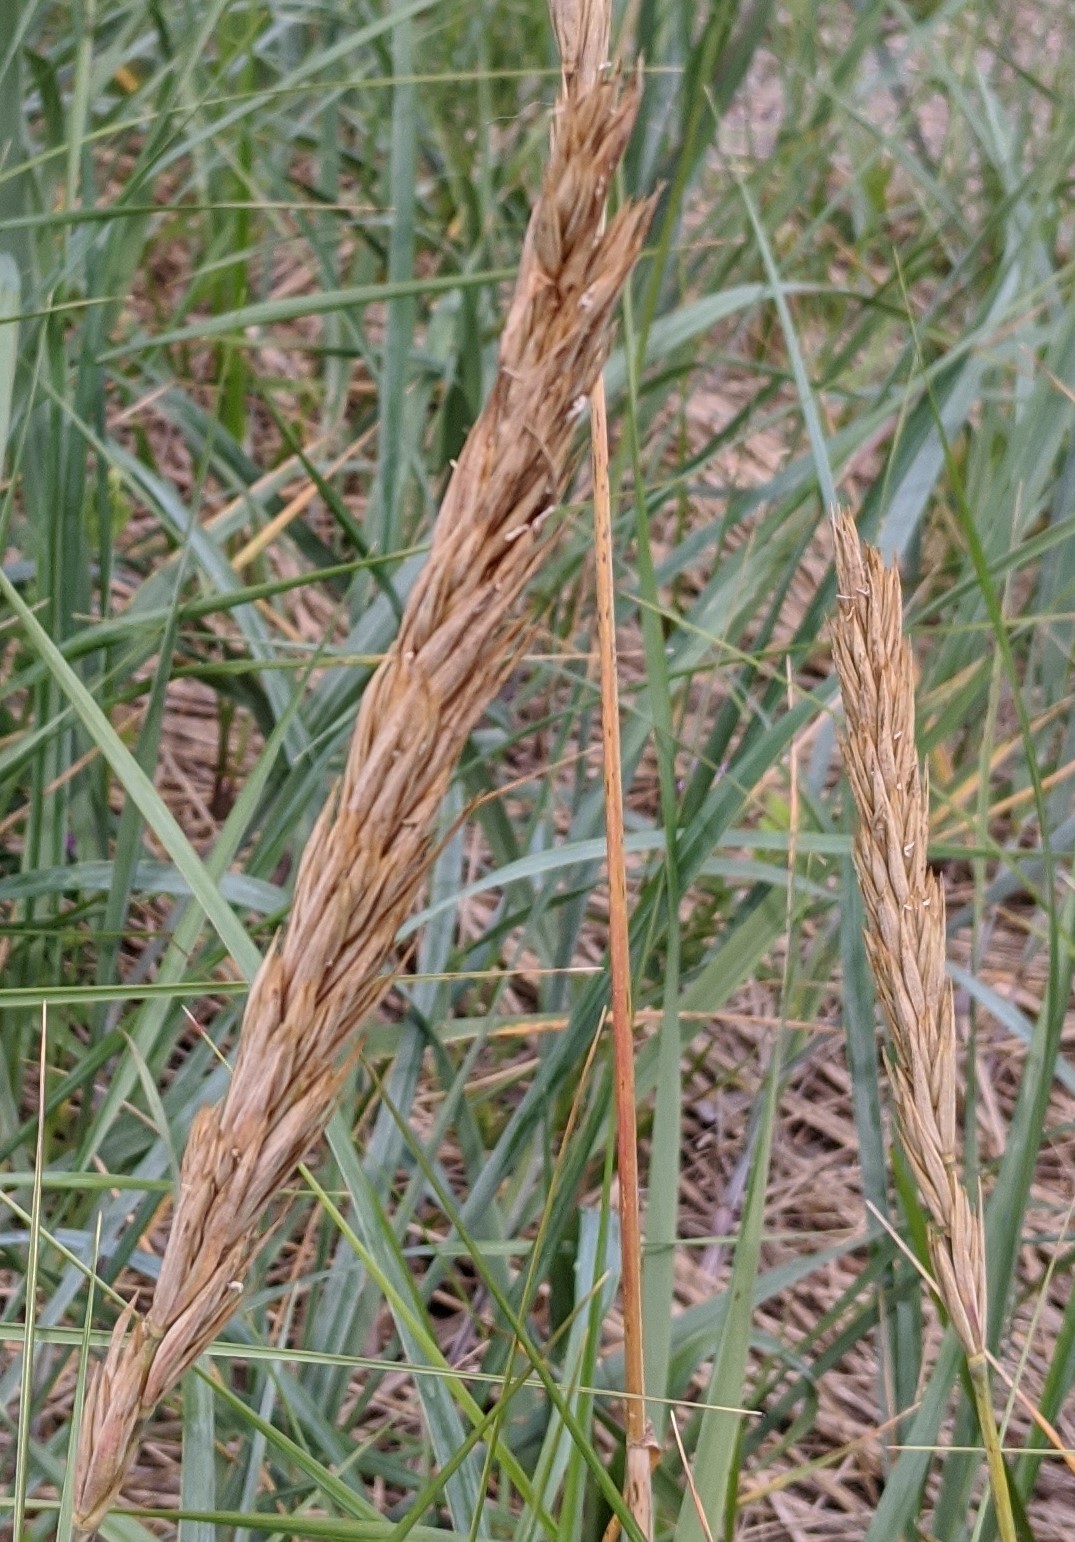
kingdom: Plantae
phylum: Tracheophyta
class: Liliopsida
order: Poales
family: Poaceae
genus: Leymus
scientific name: Leymus mollis
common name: American dune grass
